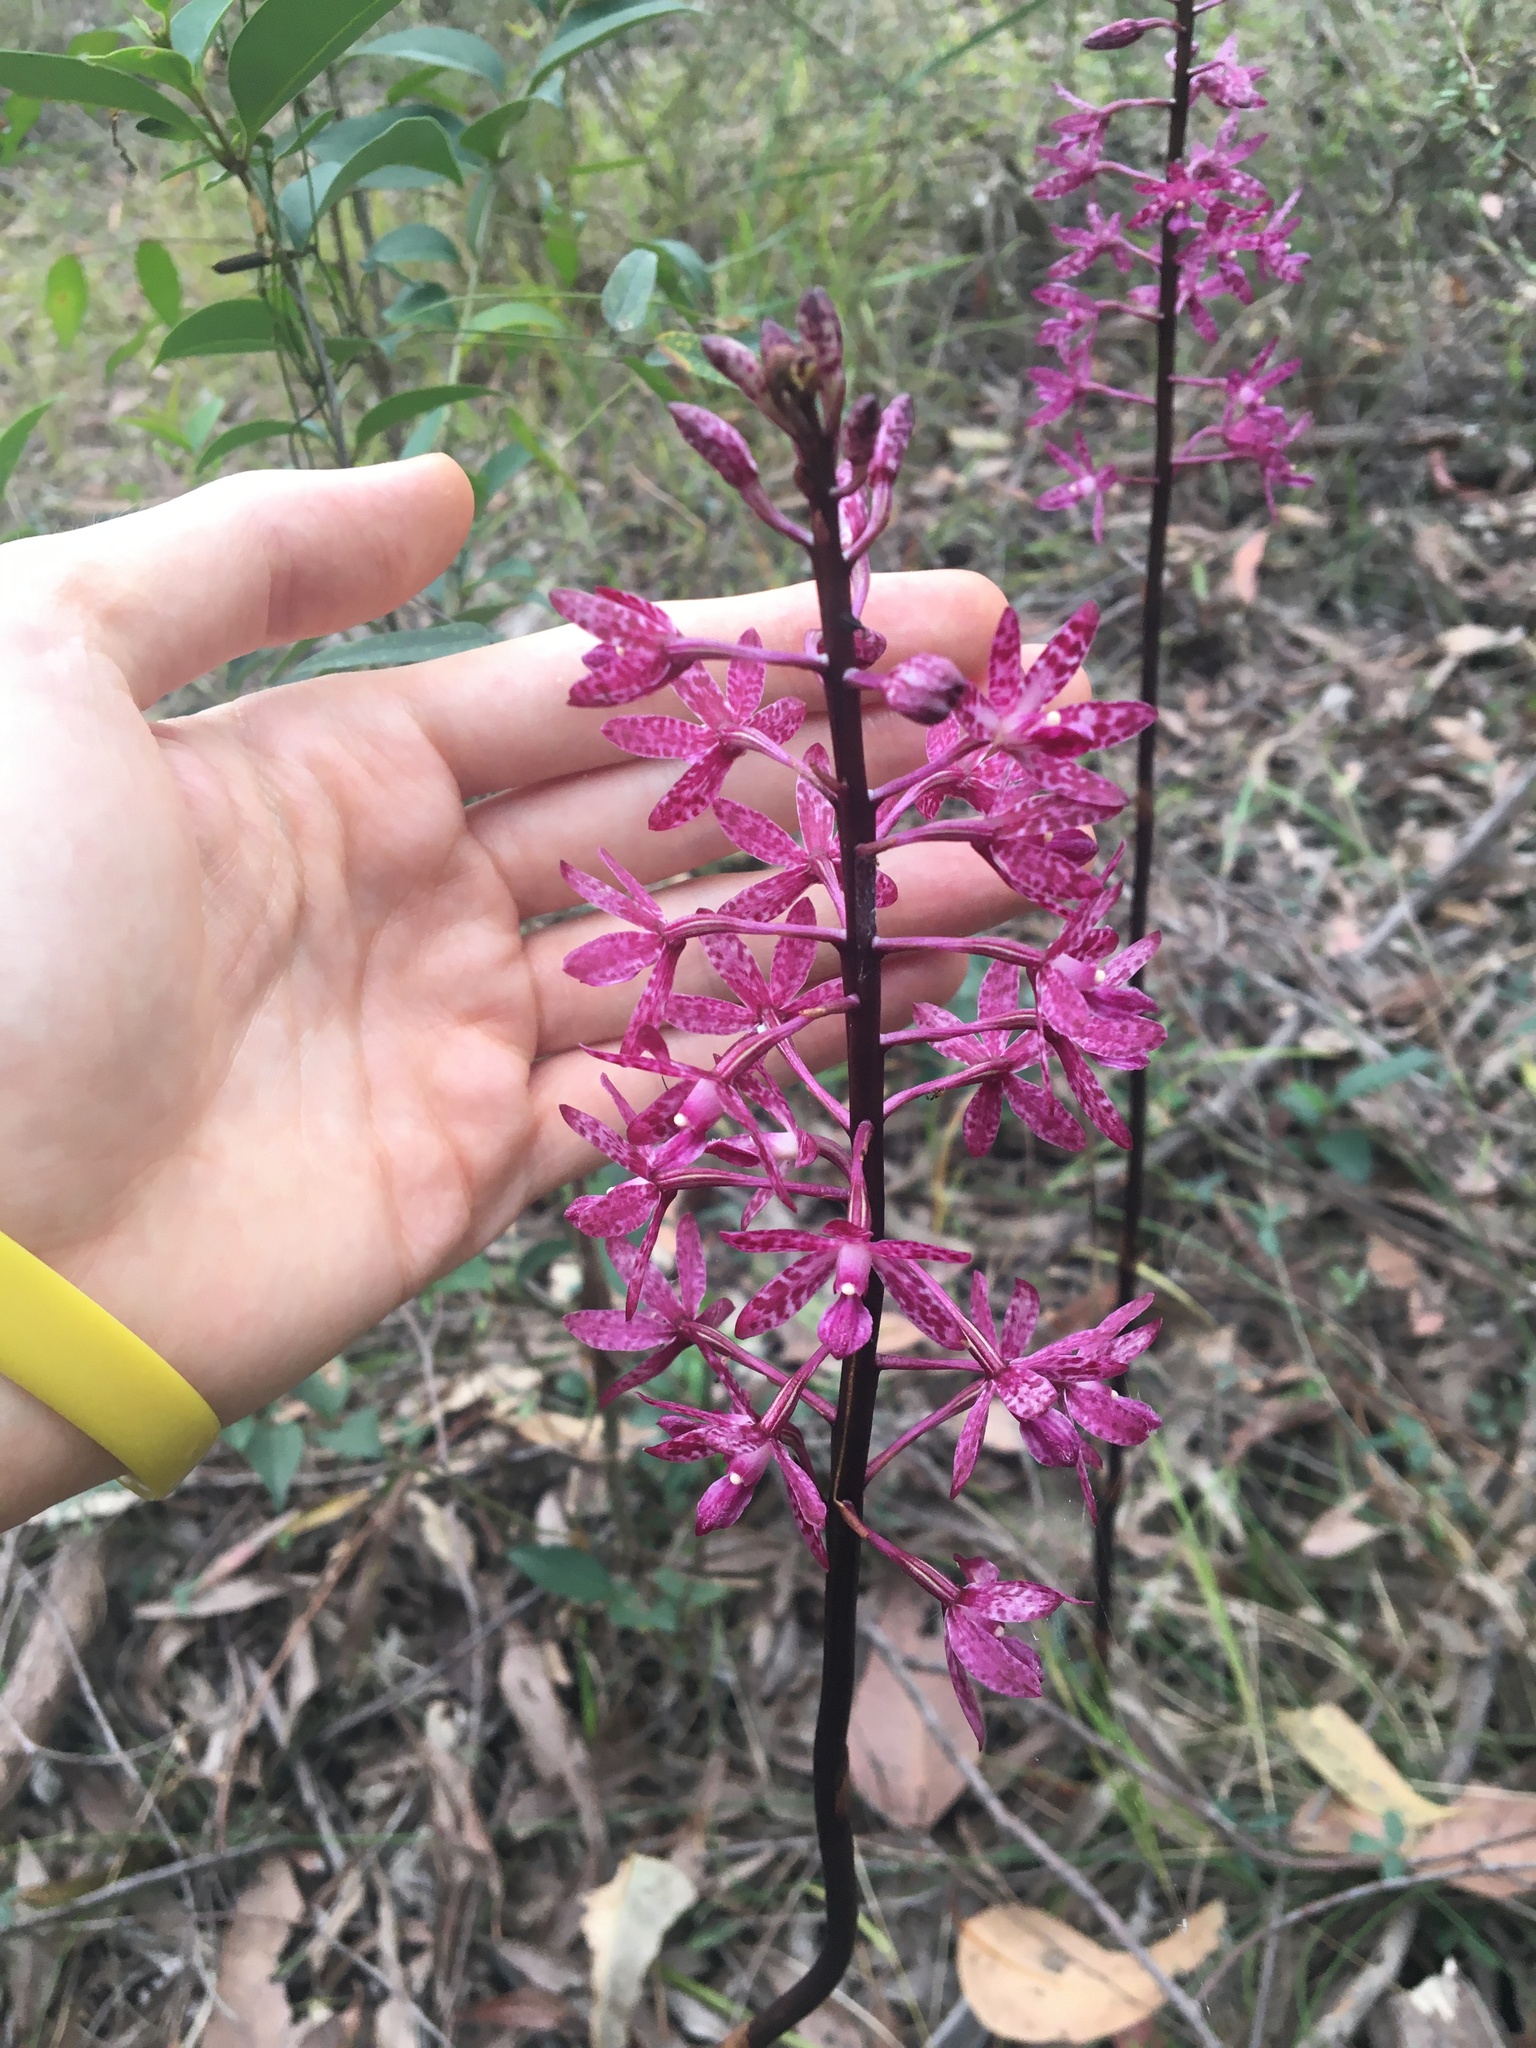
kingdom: Plantae
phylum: Tracheophyta
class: Liliopsida
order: Asparagales
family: Orchidaceae
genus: Dipodium
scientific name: Dipodium squamatum
